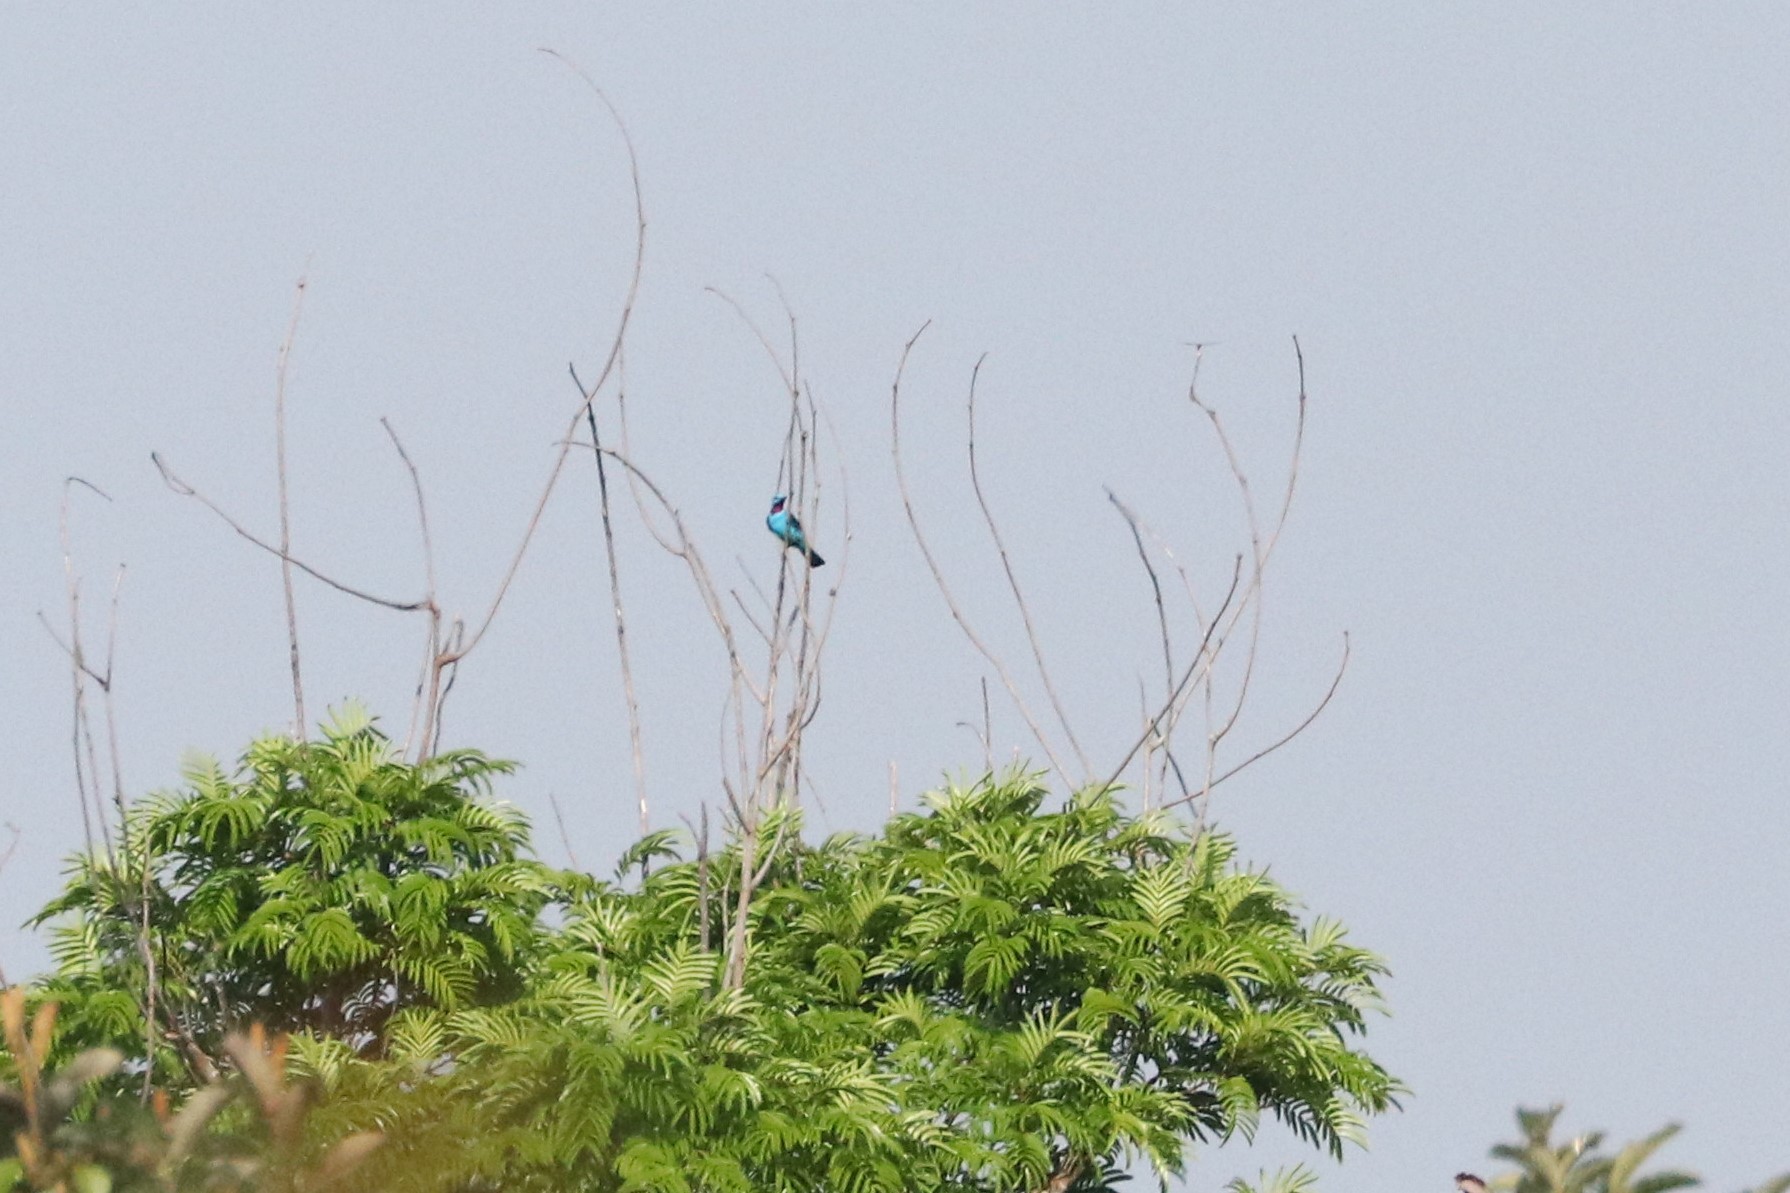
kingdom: Animalia
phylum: Chordata
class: Aves
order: Passeriformes
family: Cotingidae
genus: Cotinga
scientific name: Cotinga cayana
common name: Spangled cotinga
